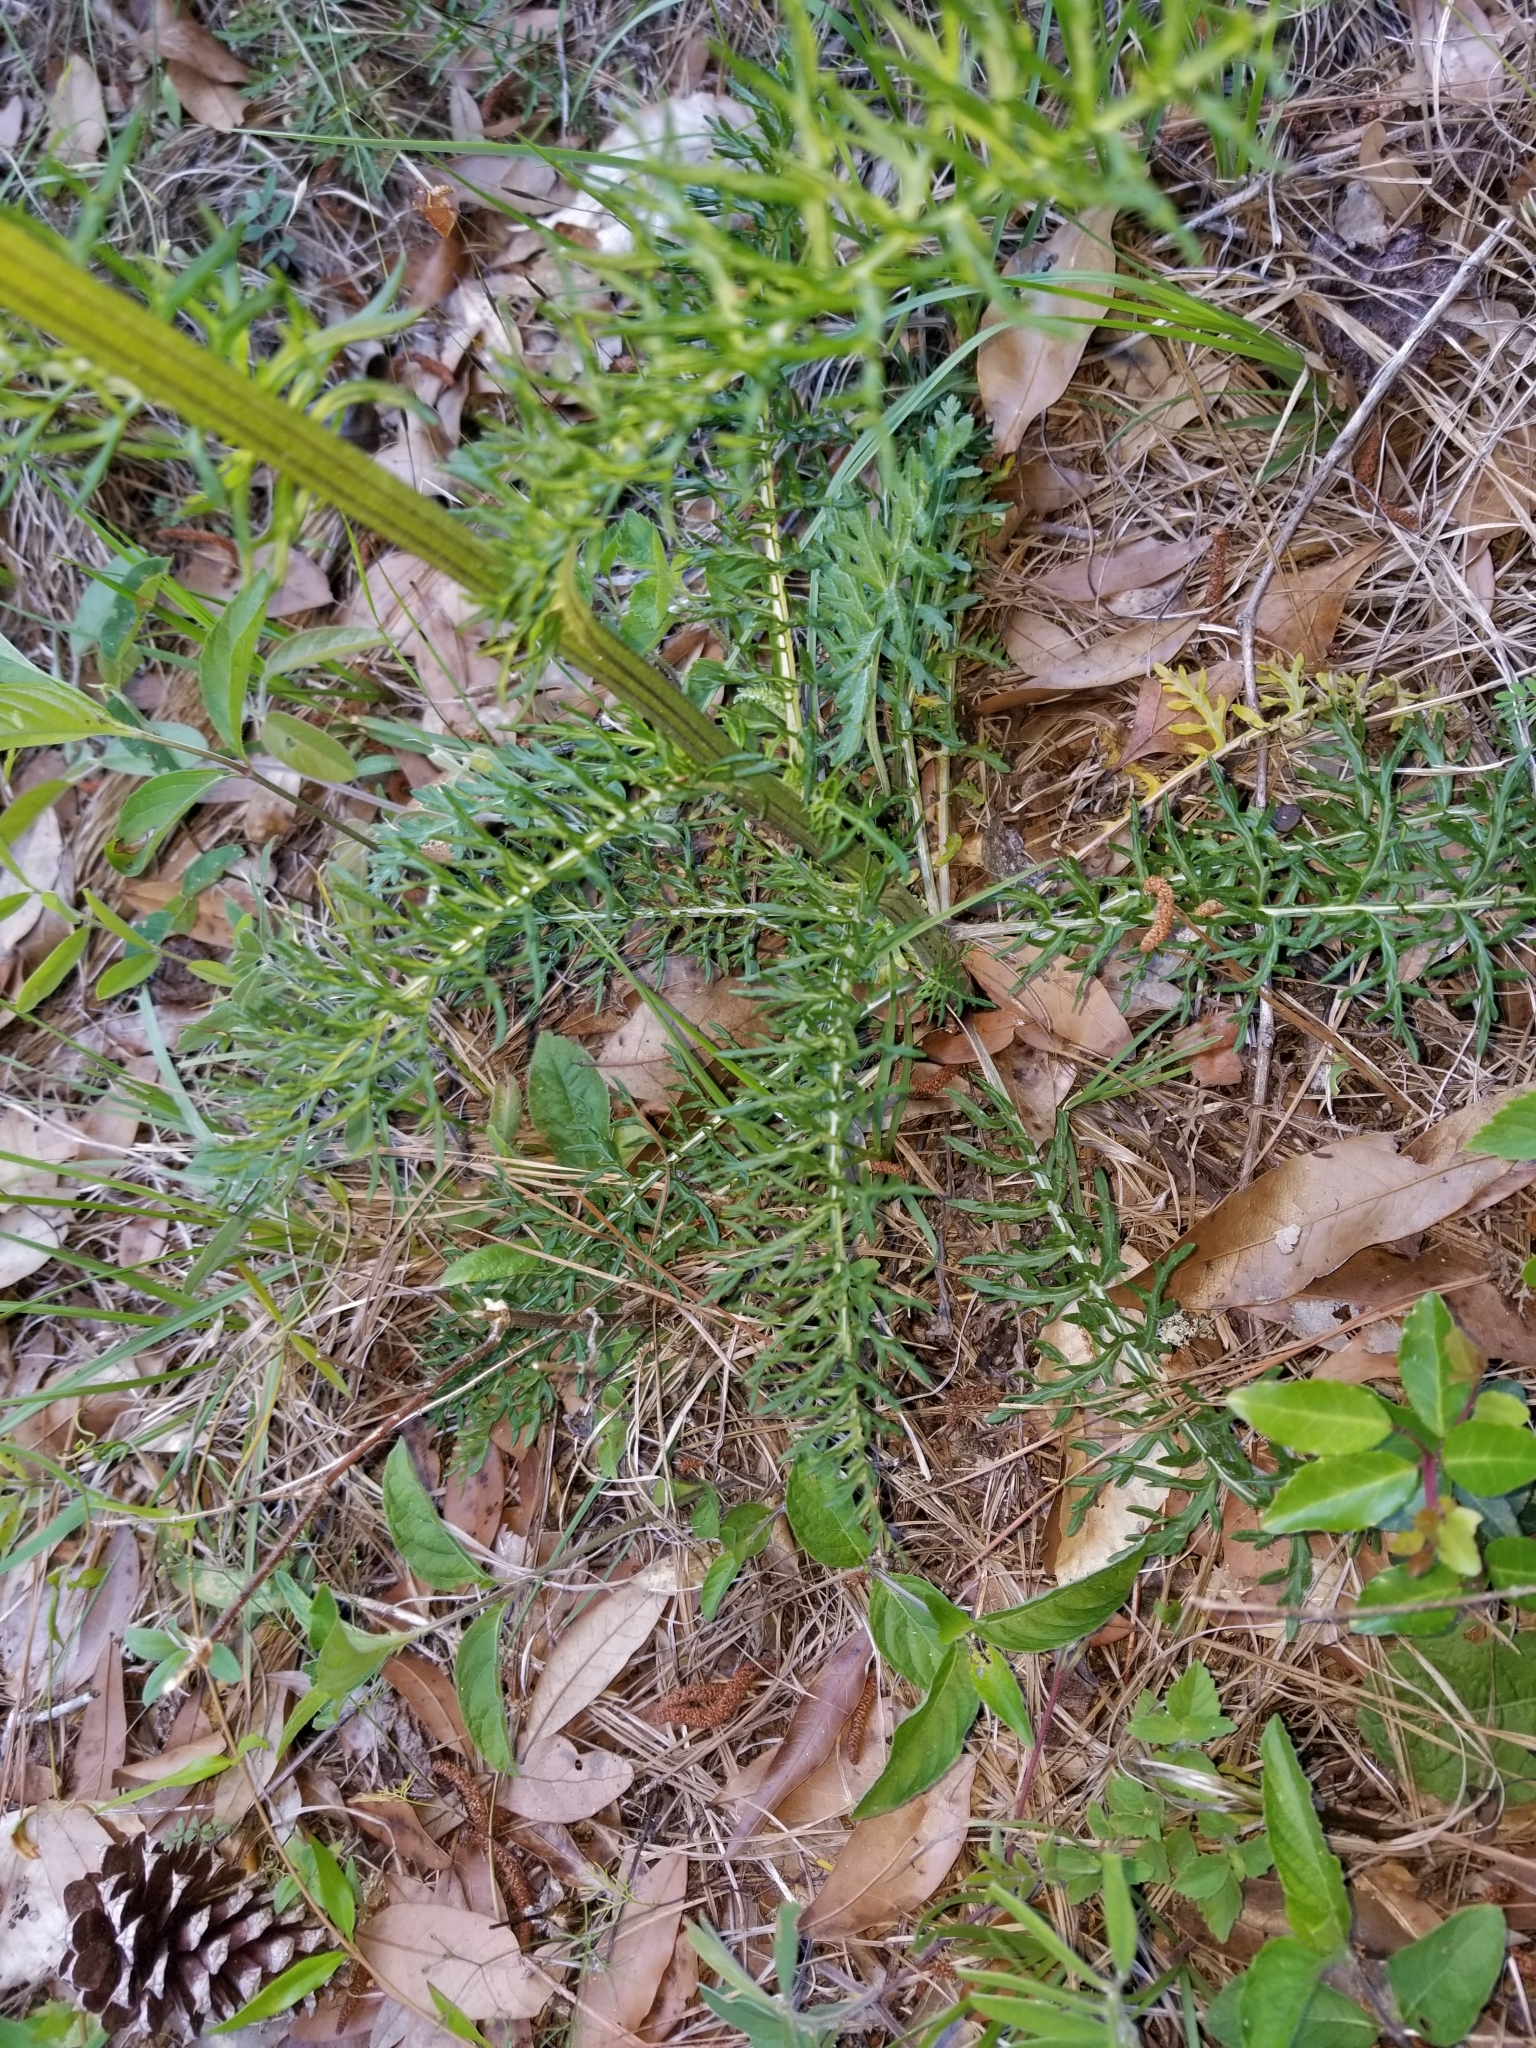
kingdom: Plantae
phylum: Tracheophyta
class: Magnoliopsida
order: Asterales
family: Asteraceae
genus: Hymenopappus
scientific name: Hymenopappus scabiosaeus
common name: Carolina woollywhite
